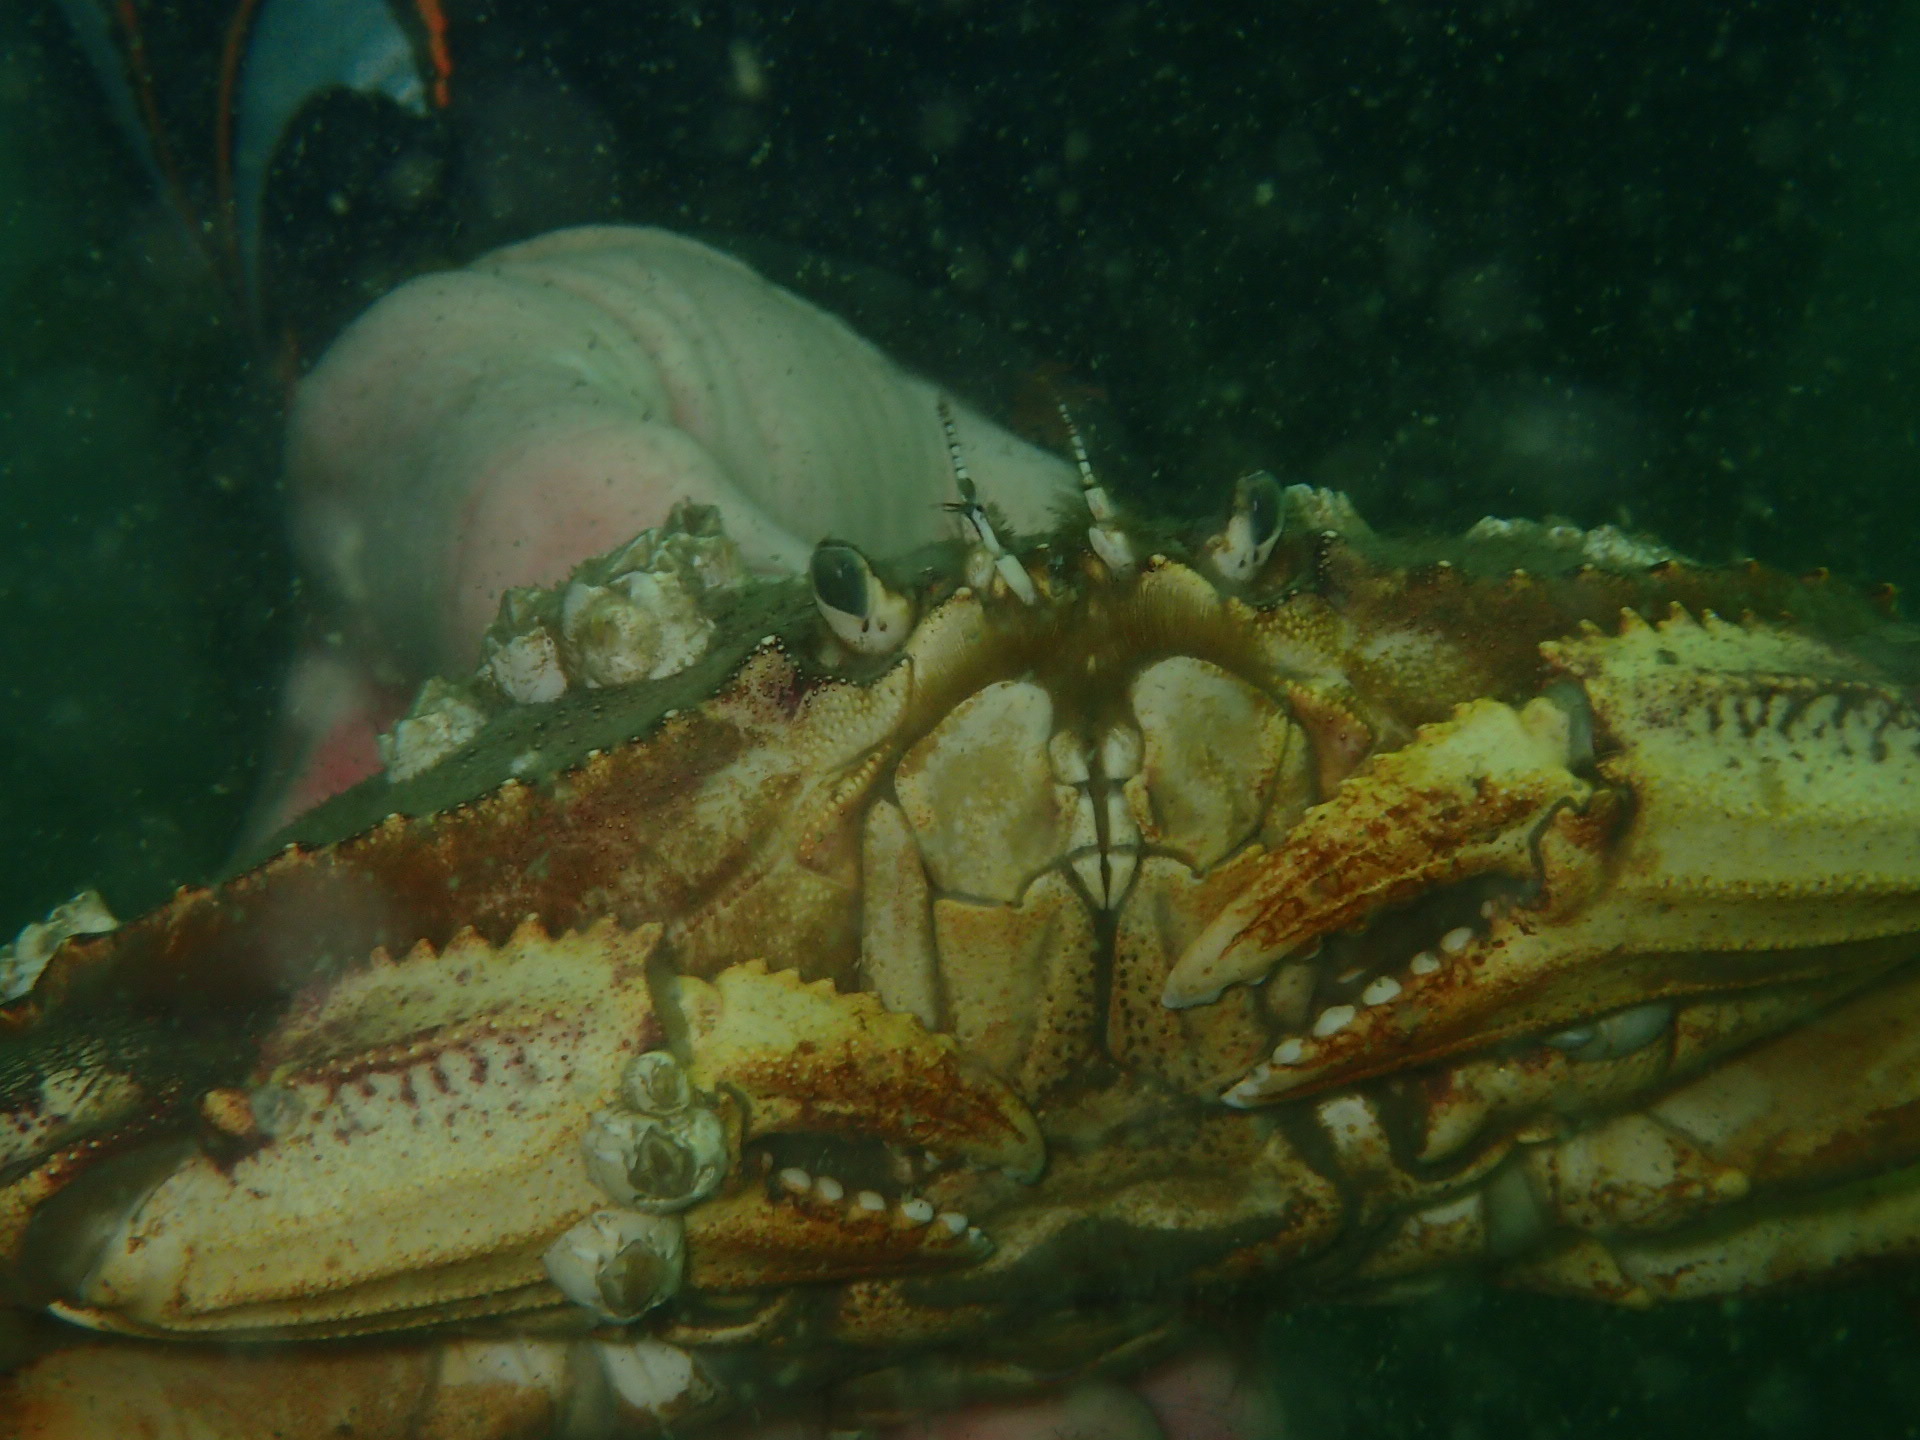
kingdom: Animalia
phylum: Arthropoda
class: Malacostraca
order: Decapoda
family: Cancridae
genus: Metacarcinus
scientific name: Metacarcinus magister
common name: Californian crab
